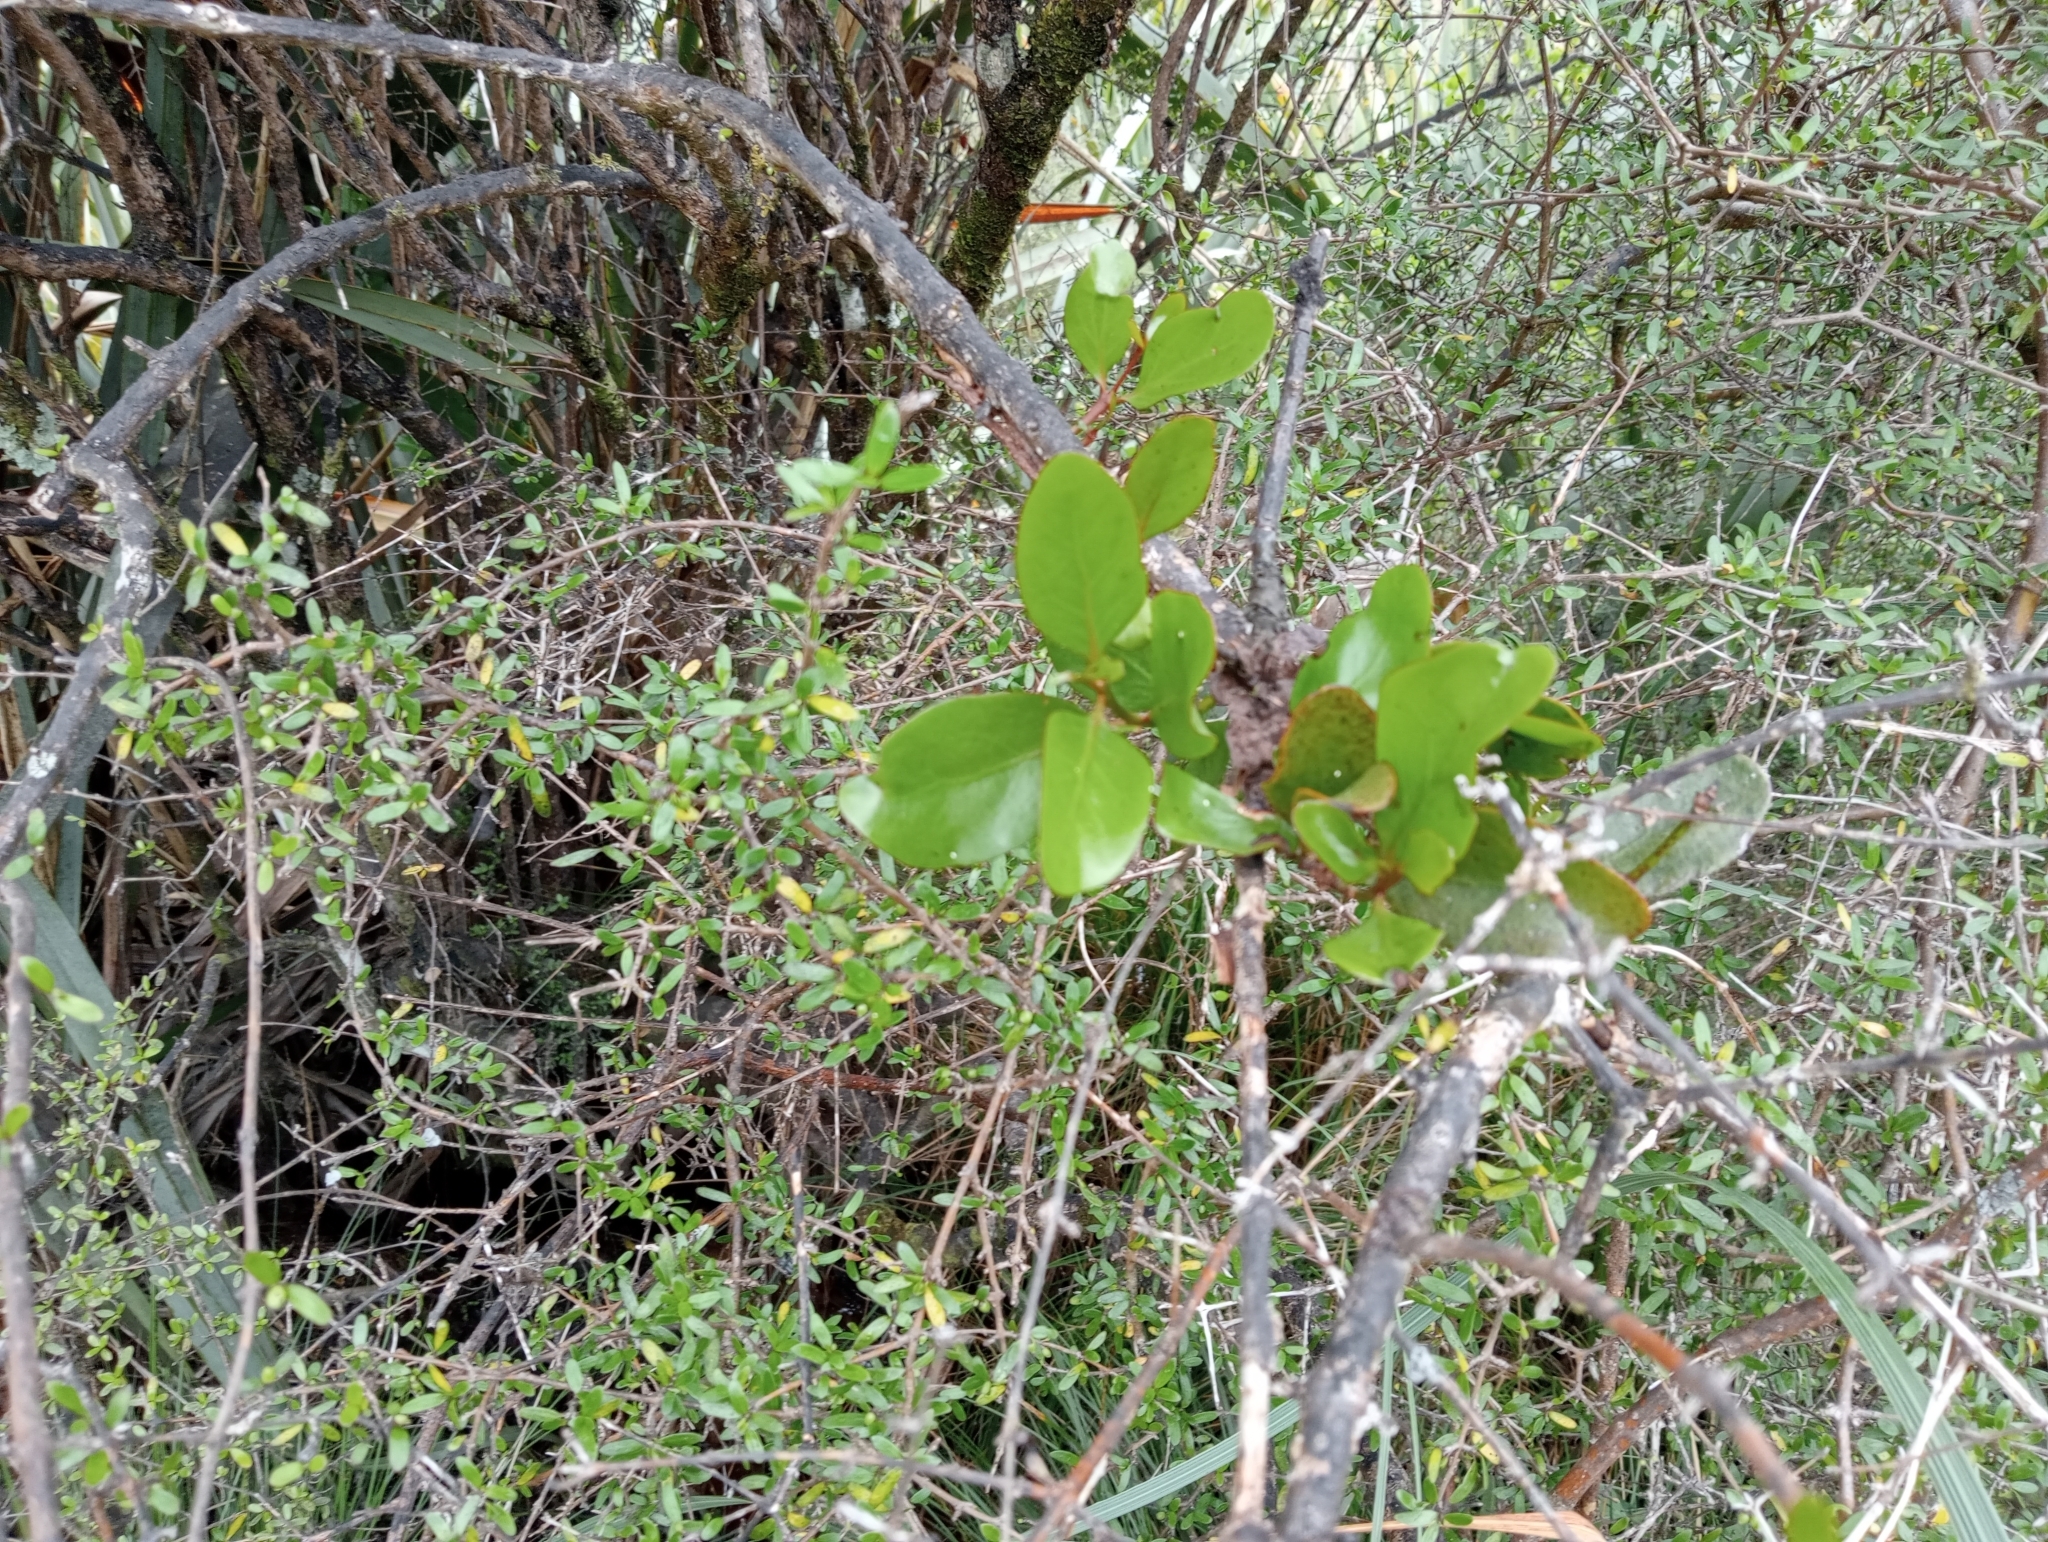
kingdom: Plantae
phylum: Tracheophyta
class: Magnoliopsida
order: Santalales
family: Loranthaceae
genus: Ileostylus
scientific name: Ileostylus micranthus
